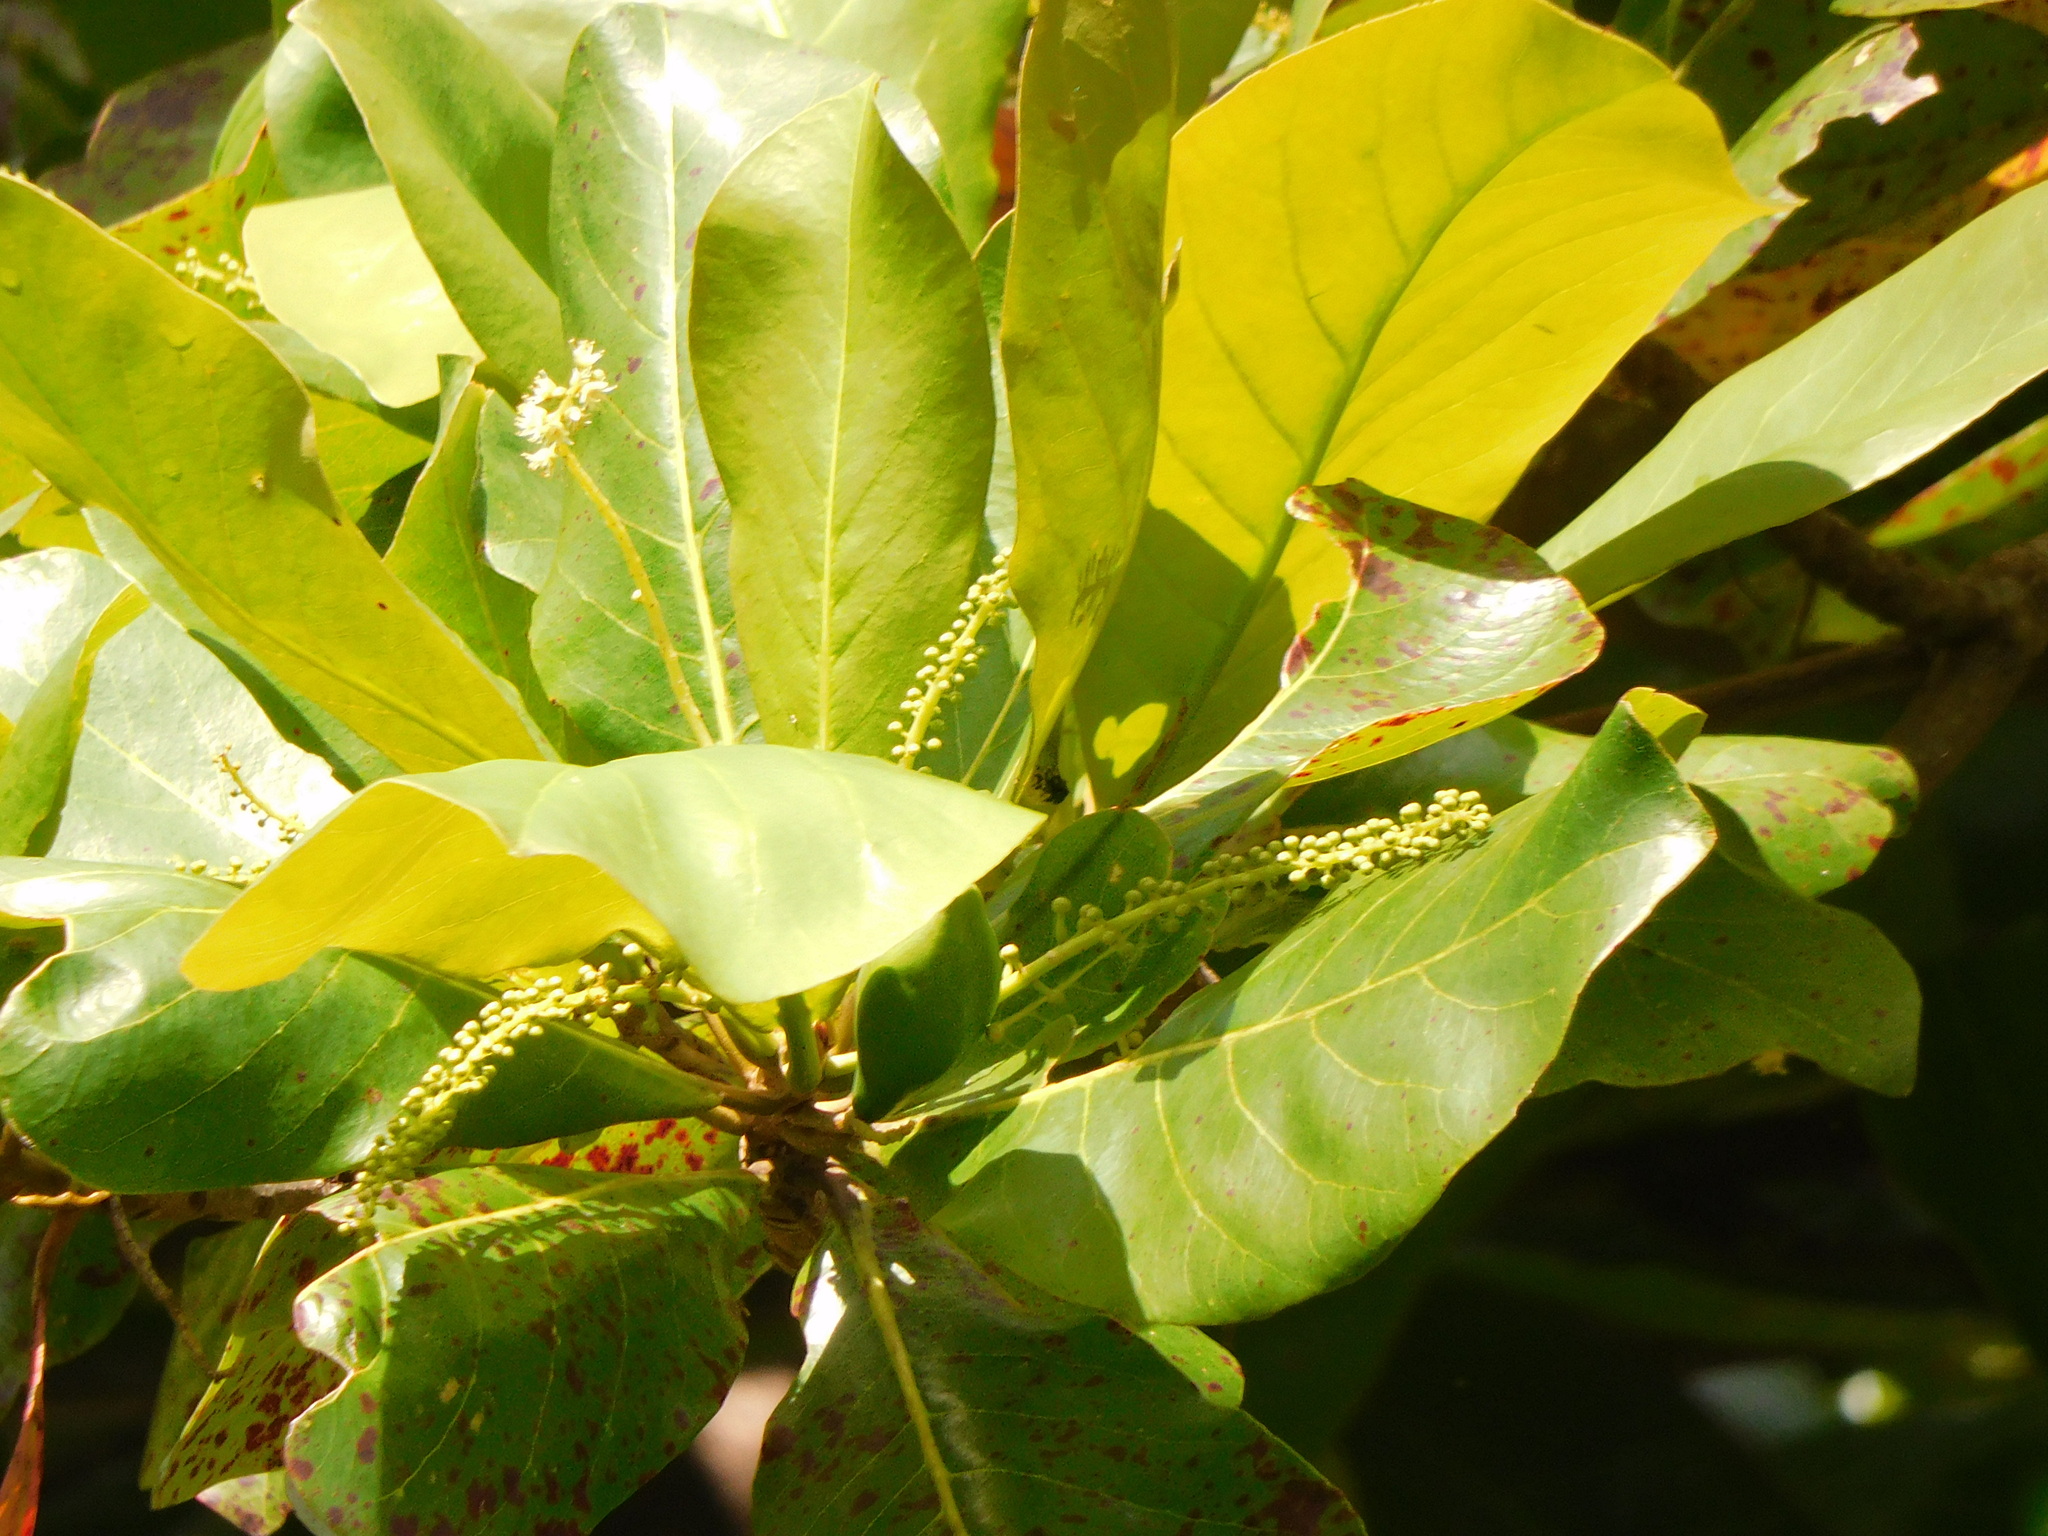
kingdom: Plantae
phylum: Tracheophyta
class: Magnoliopsida
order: Myrtales
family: Combretaceae
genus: Terminalia
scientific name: Terminalia catappa
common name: Tropical almond
